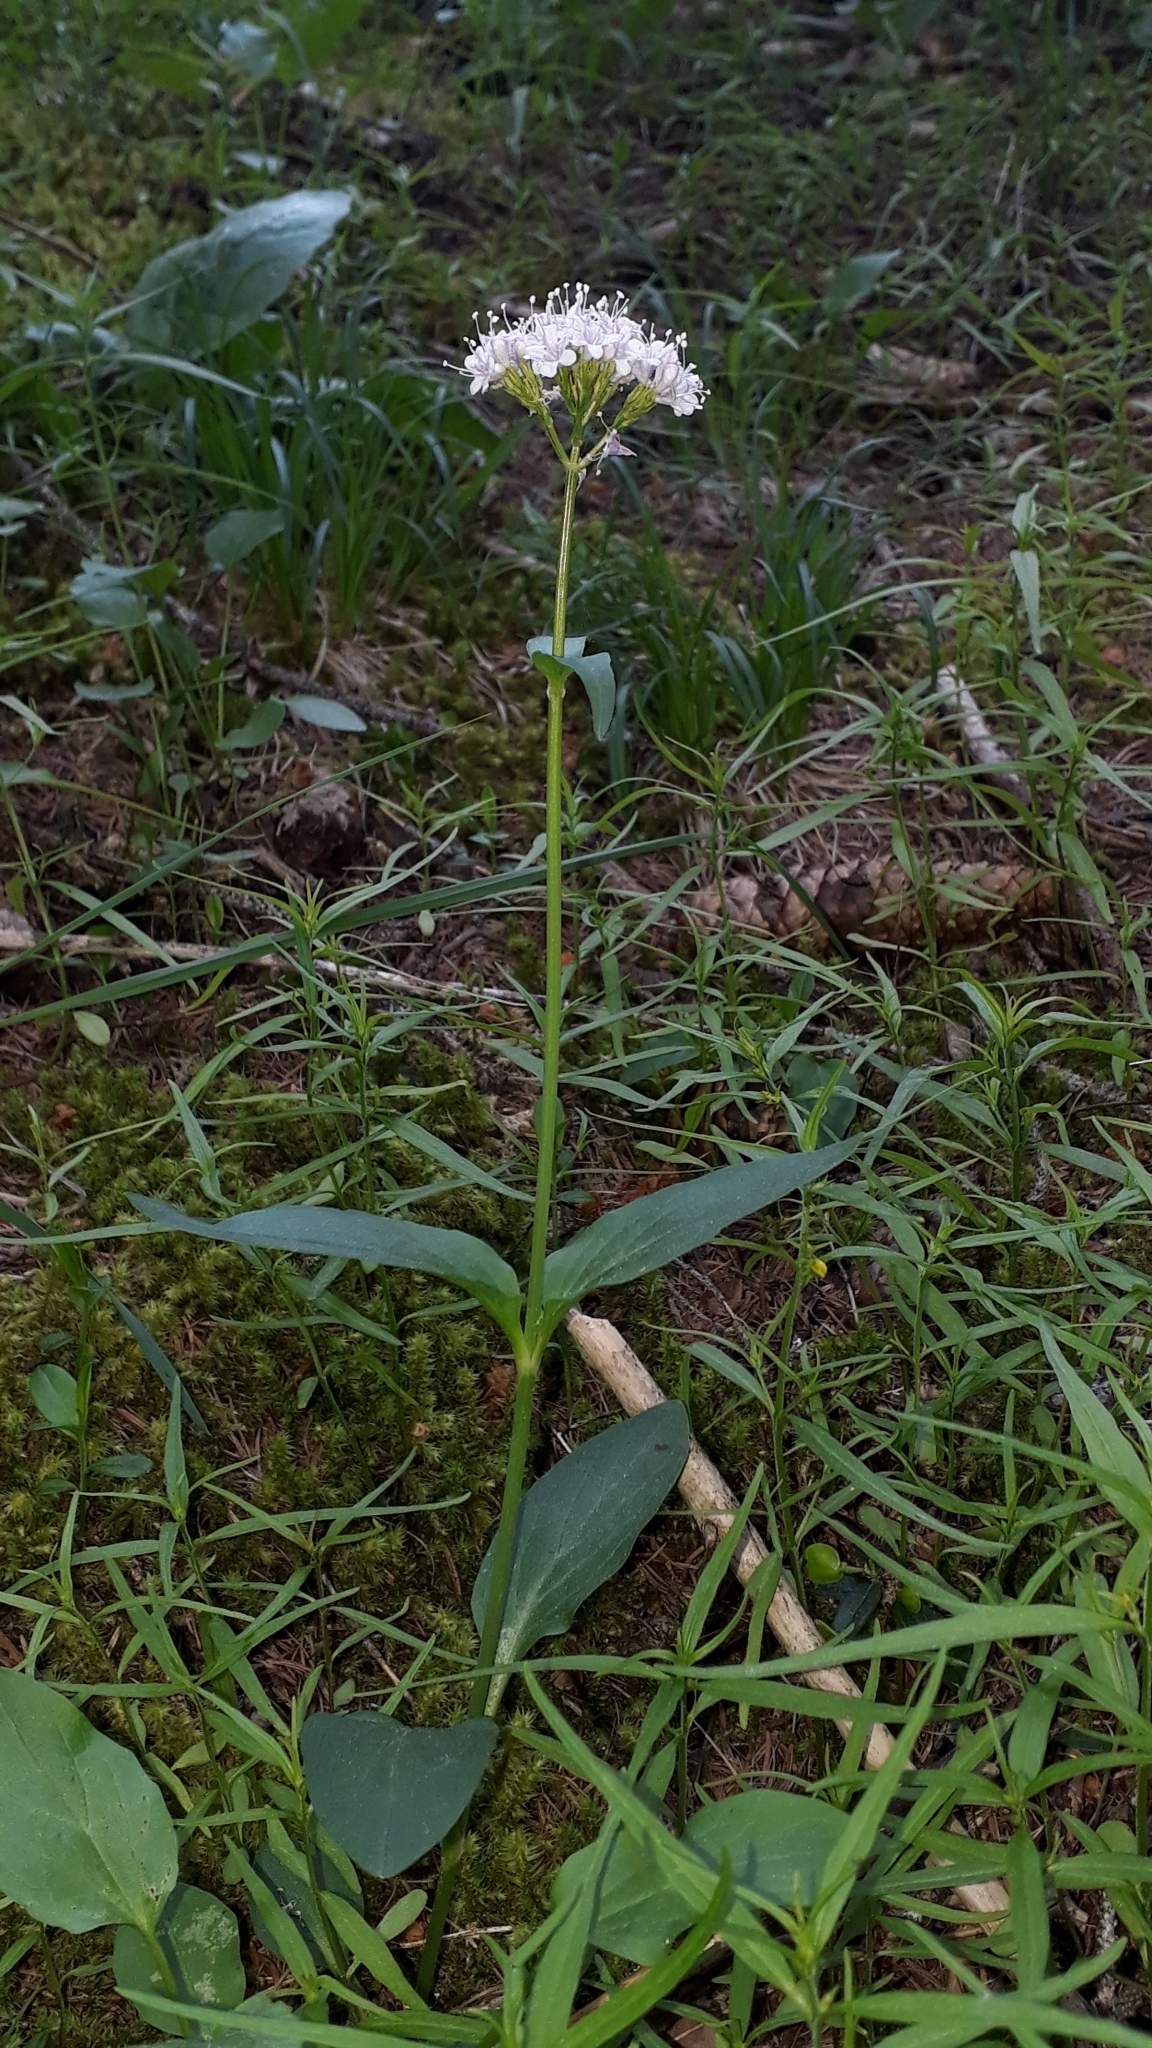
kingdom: Plantae
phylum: Tracheophyta
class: Magnoliopsida
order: Dipsacales
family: Caprifoliaceae
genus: Valeriana
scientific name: Valeriana montana
